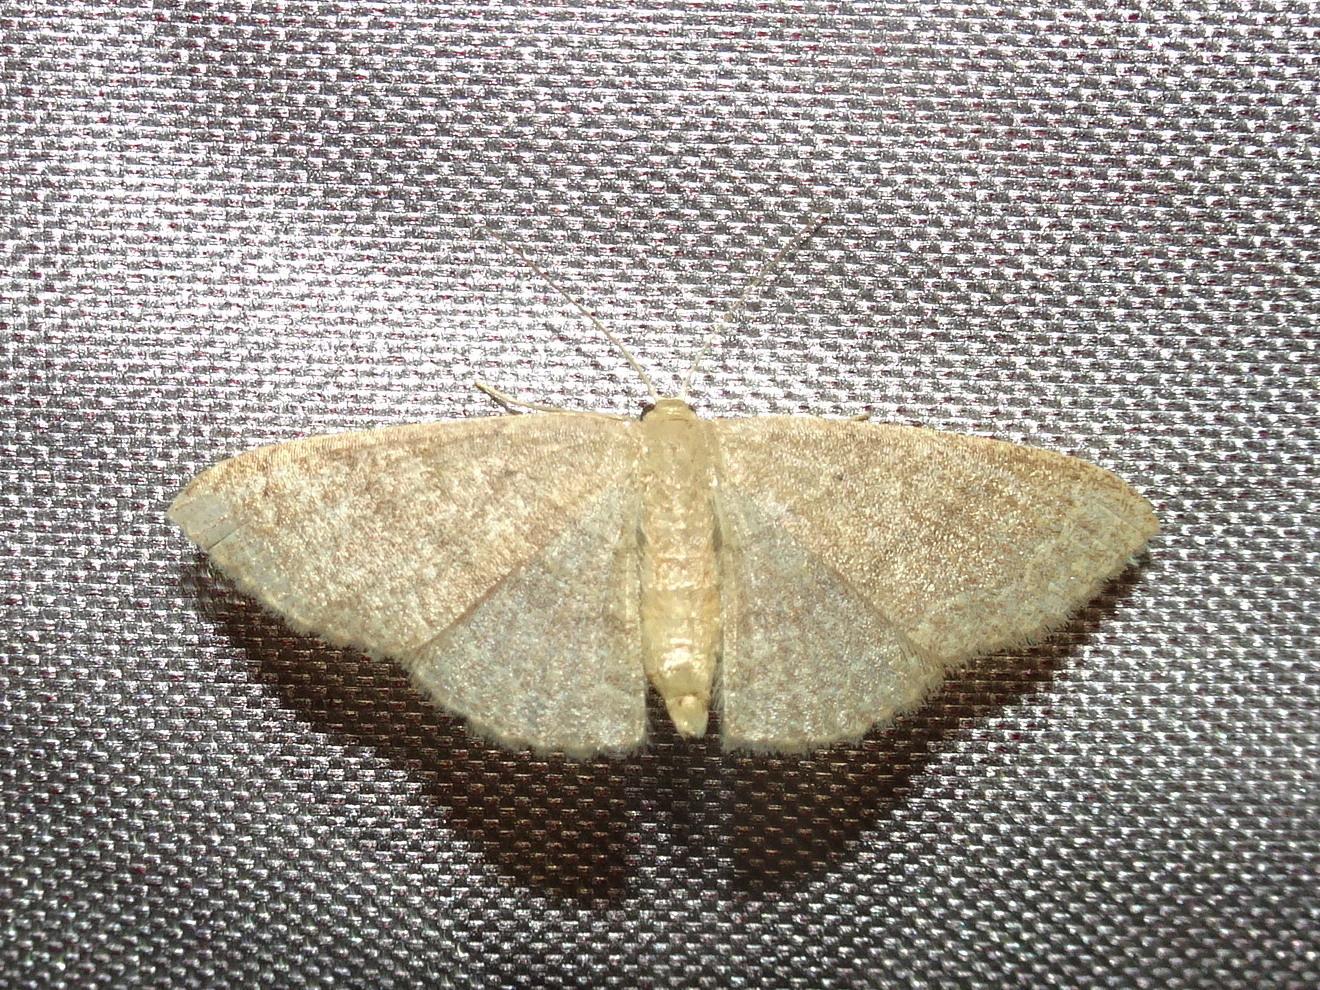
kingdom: Animalia
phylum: Arthropoda
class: Insecta
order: Lepidoptera
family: Geometridae
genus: Pleuroprucha
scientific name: Pleuroprucha insulsaria
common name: Common tan wave
